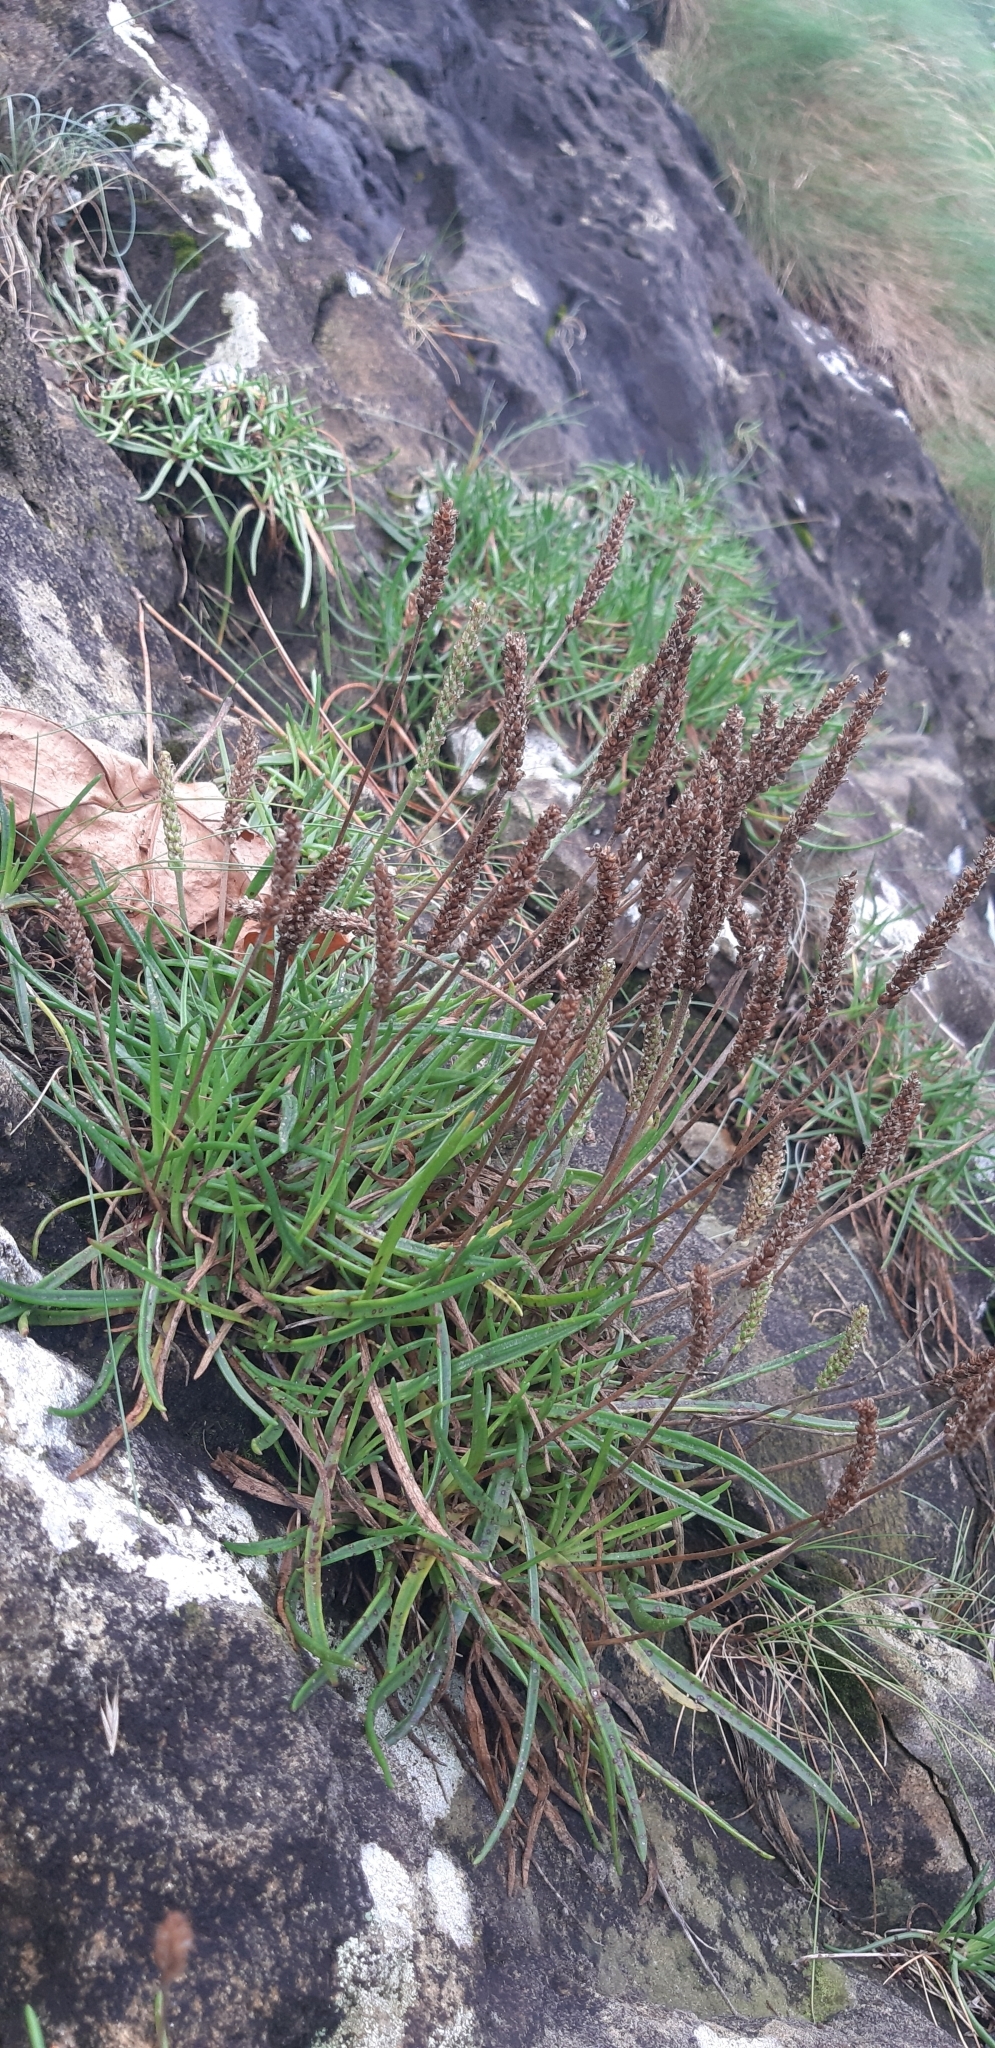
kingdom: Plantae
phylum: Tracheophyta
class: Magnoliopsida
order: Lamiales
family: Plantaginaceae
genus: Plantago
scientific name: Plantago maritima
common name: Sea plantain
